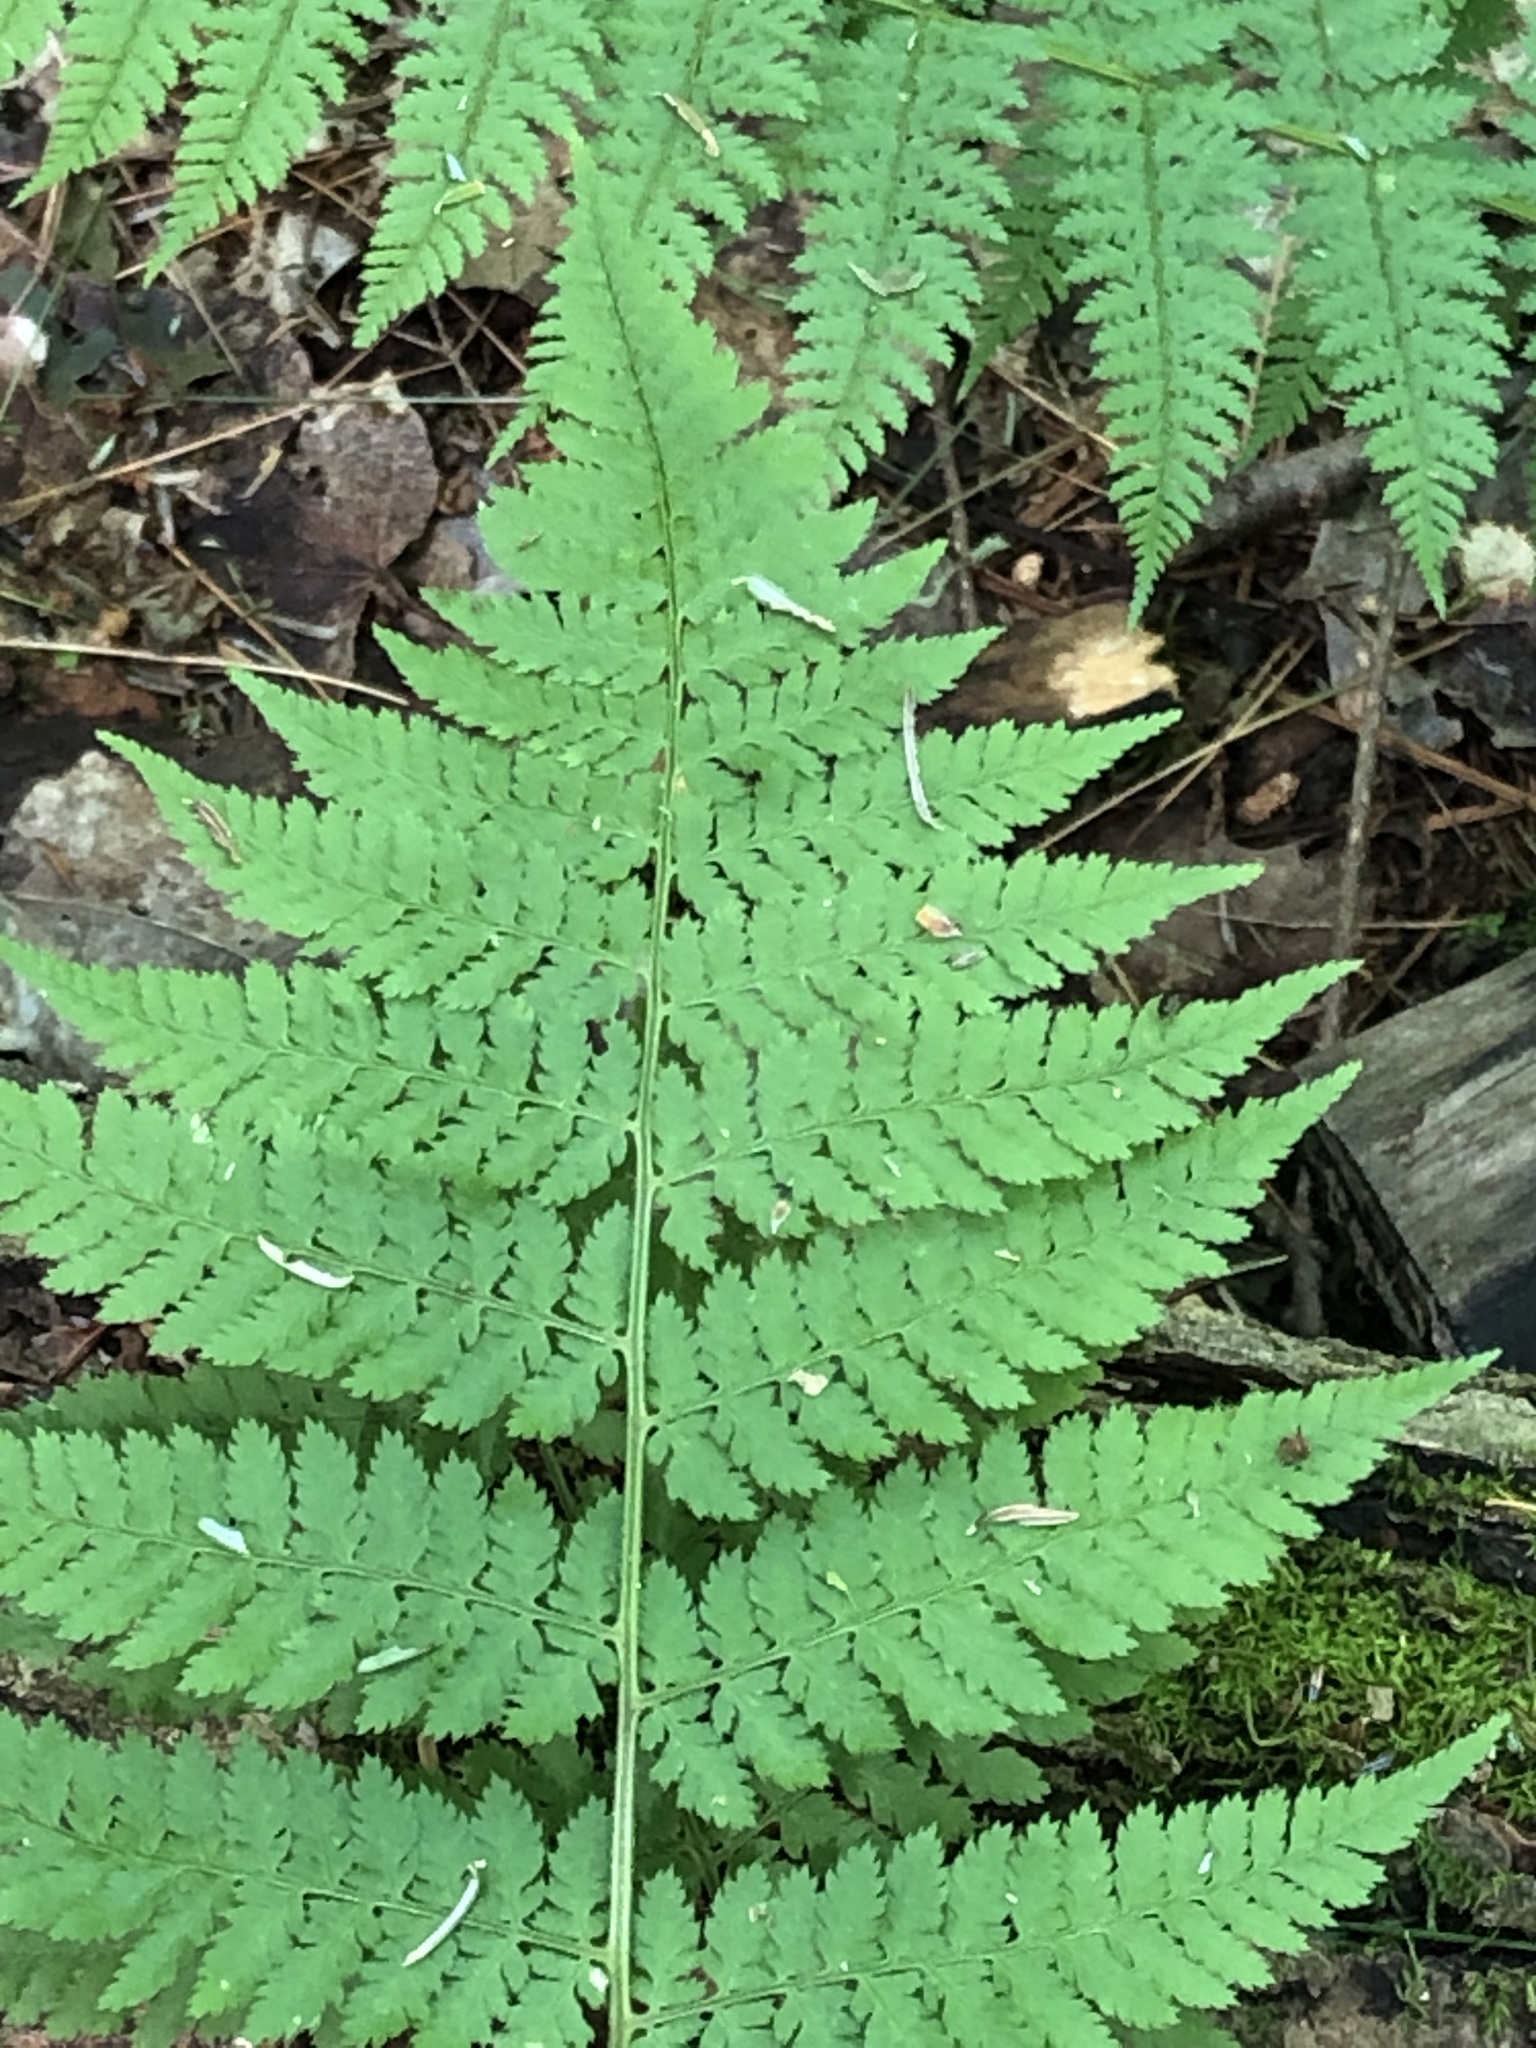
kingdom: Plantae
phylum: Tracheophyta
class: Polypodiopsida
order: Polypodiales
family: Dryopteridaceae
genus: Dryopteris
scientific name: Dryopteris intermedia
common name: Evergreen wood fern
